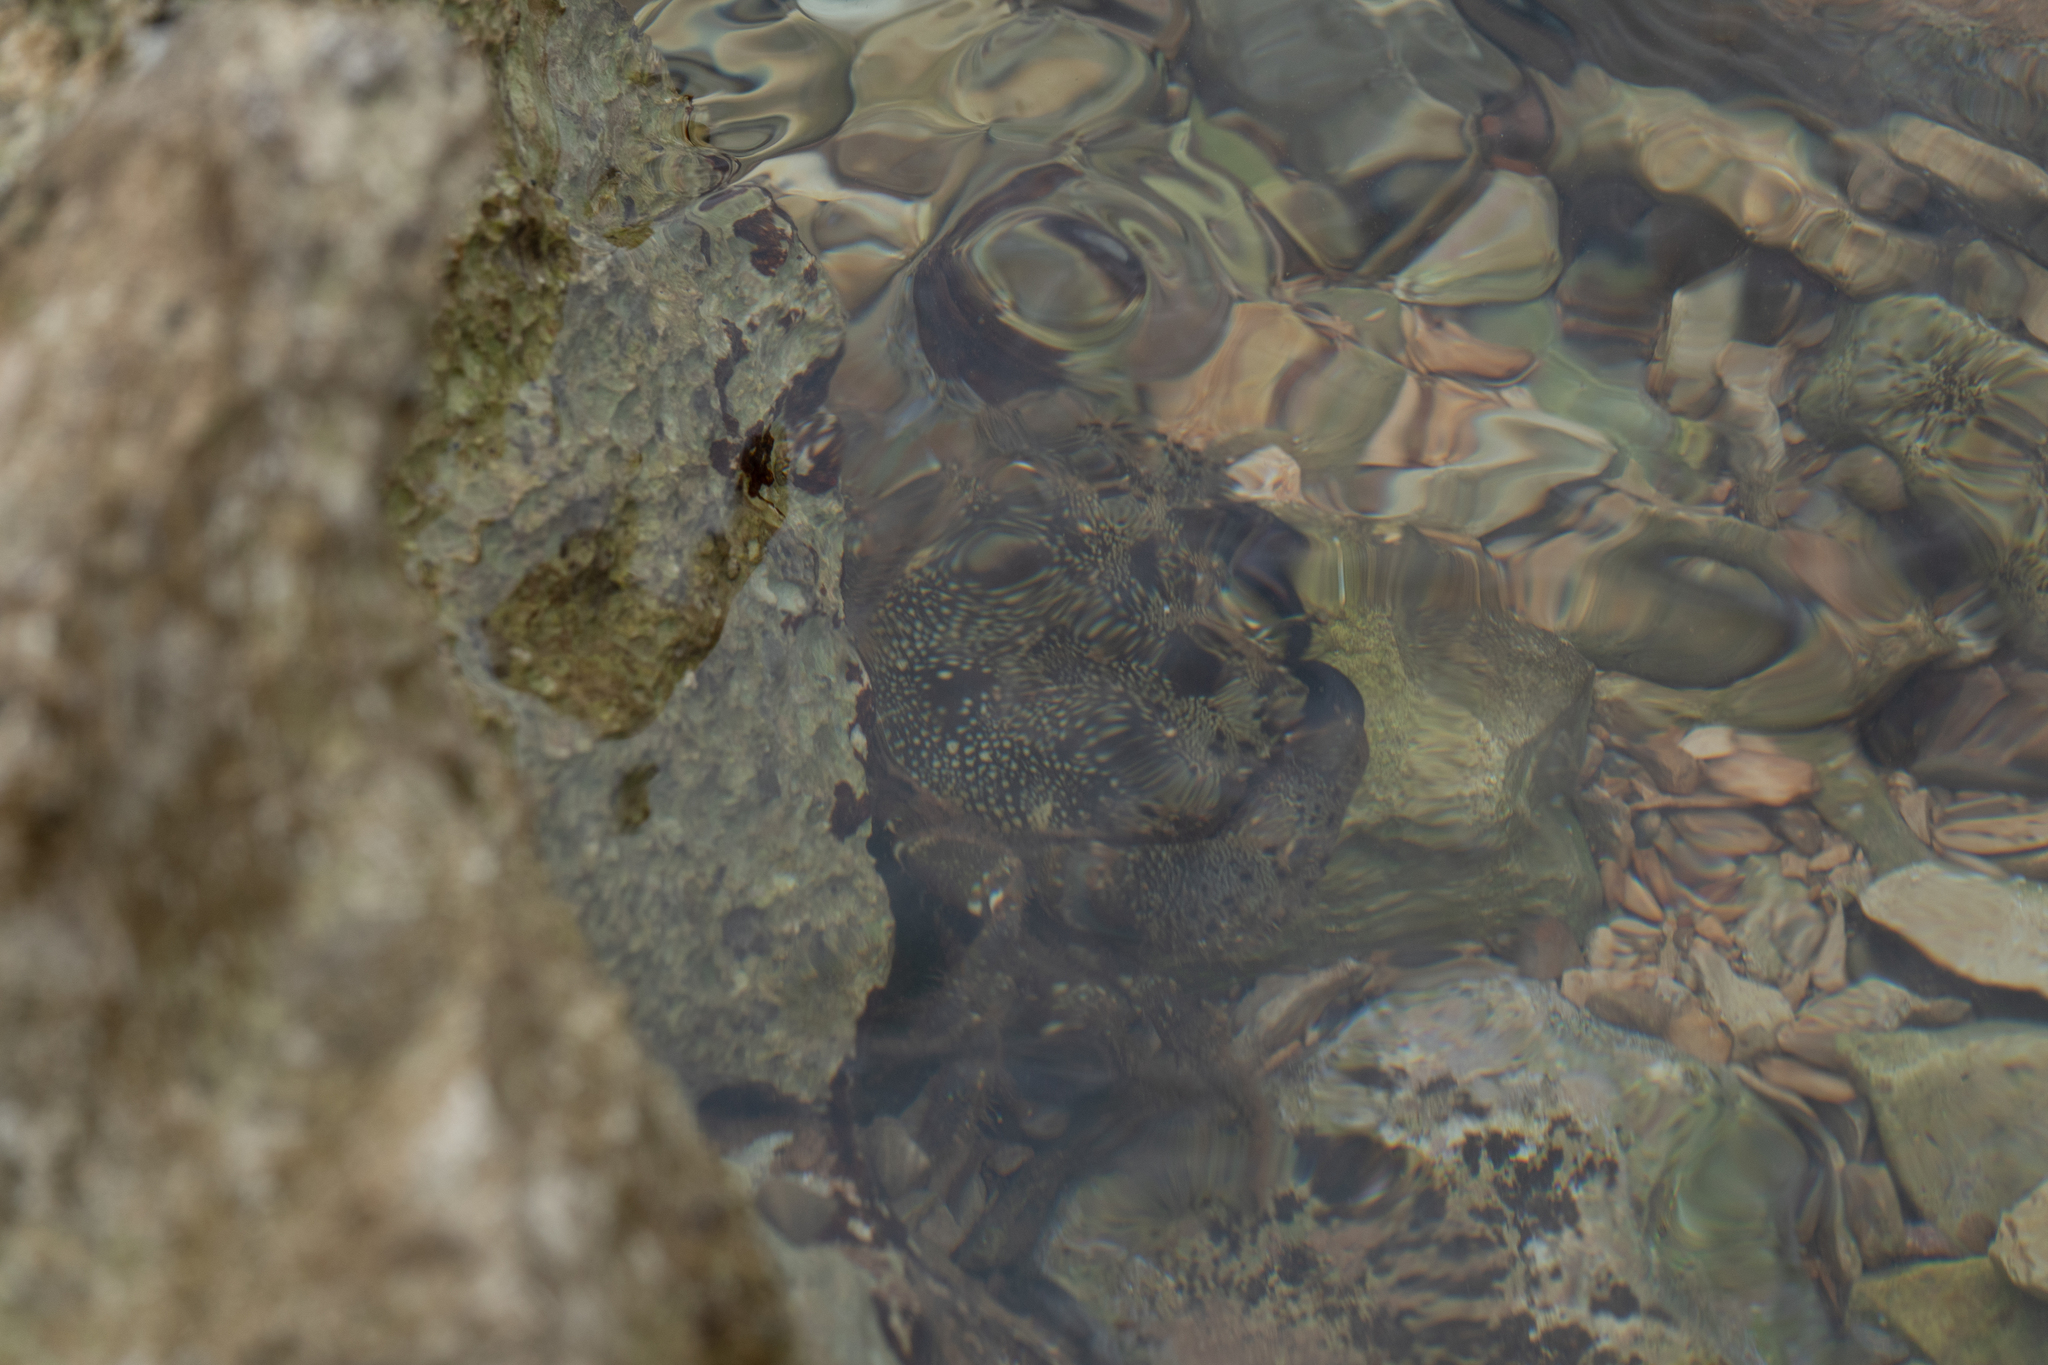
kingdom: Animalia
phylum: Arthropoda
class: Malacostraca
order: Decapoda
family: Eriphiidae
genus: Eriphia
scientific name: Eriphia verrucosa
